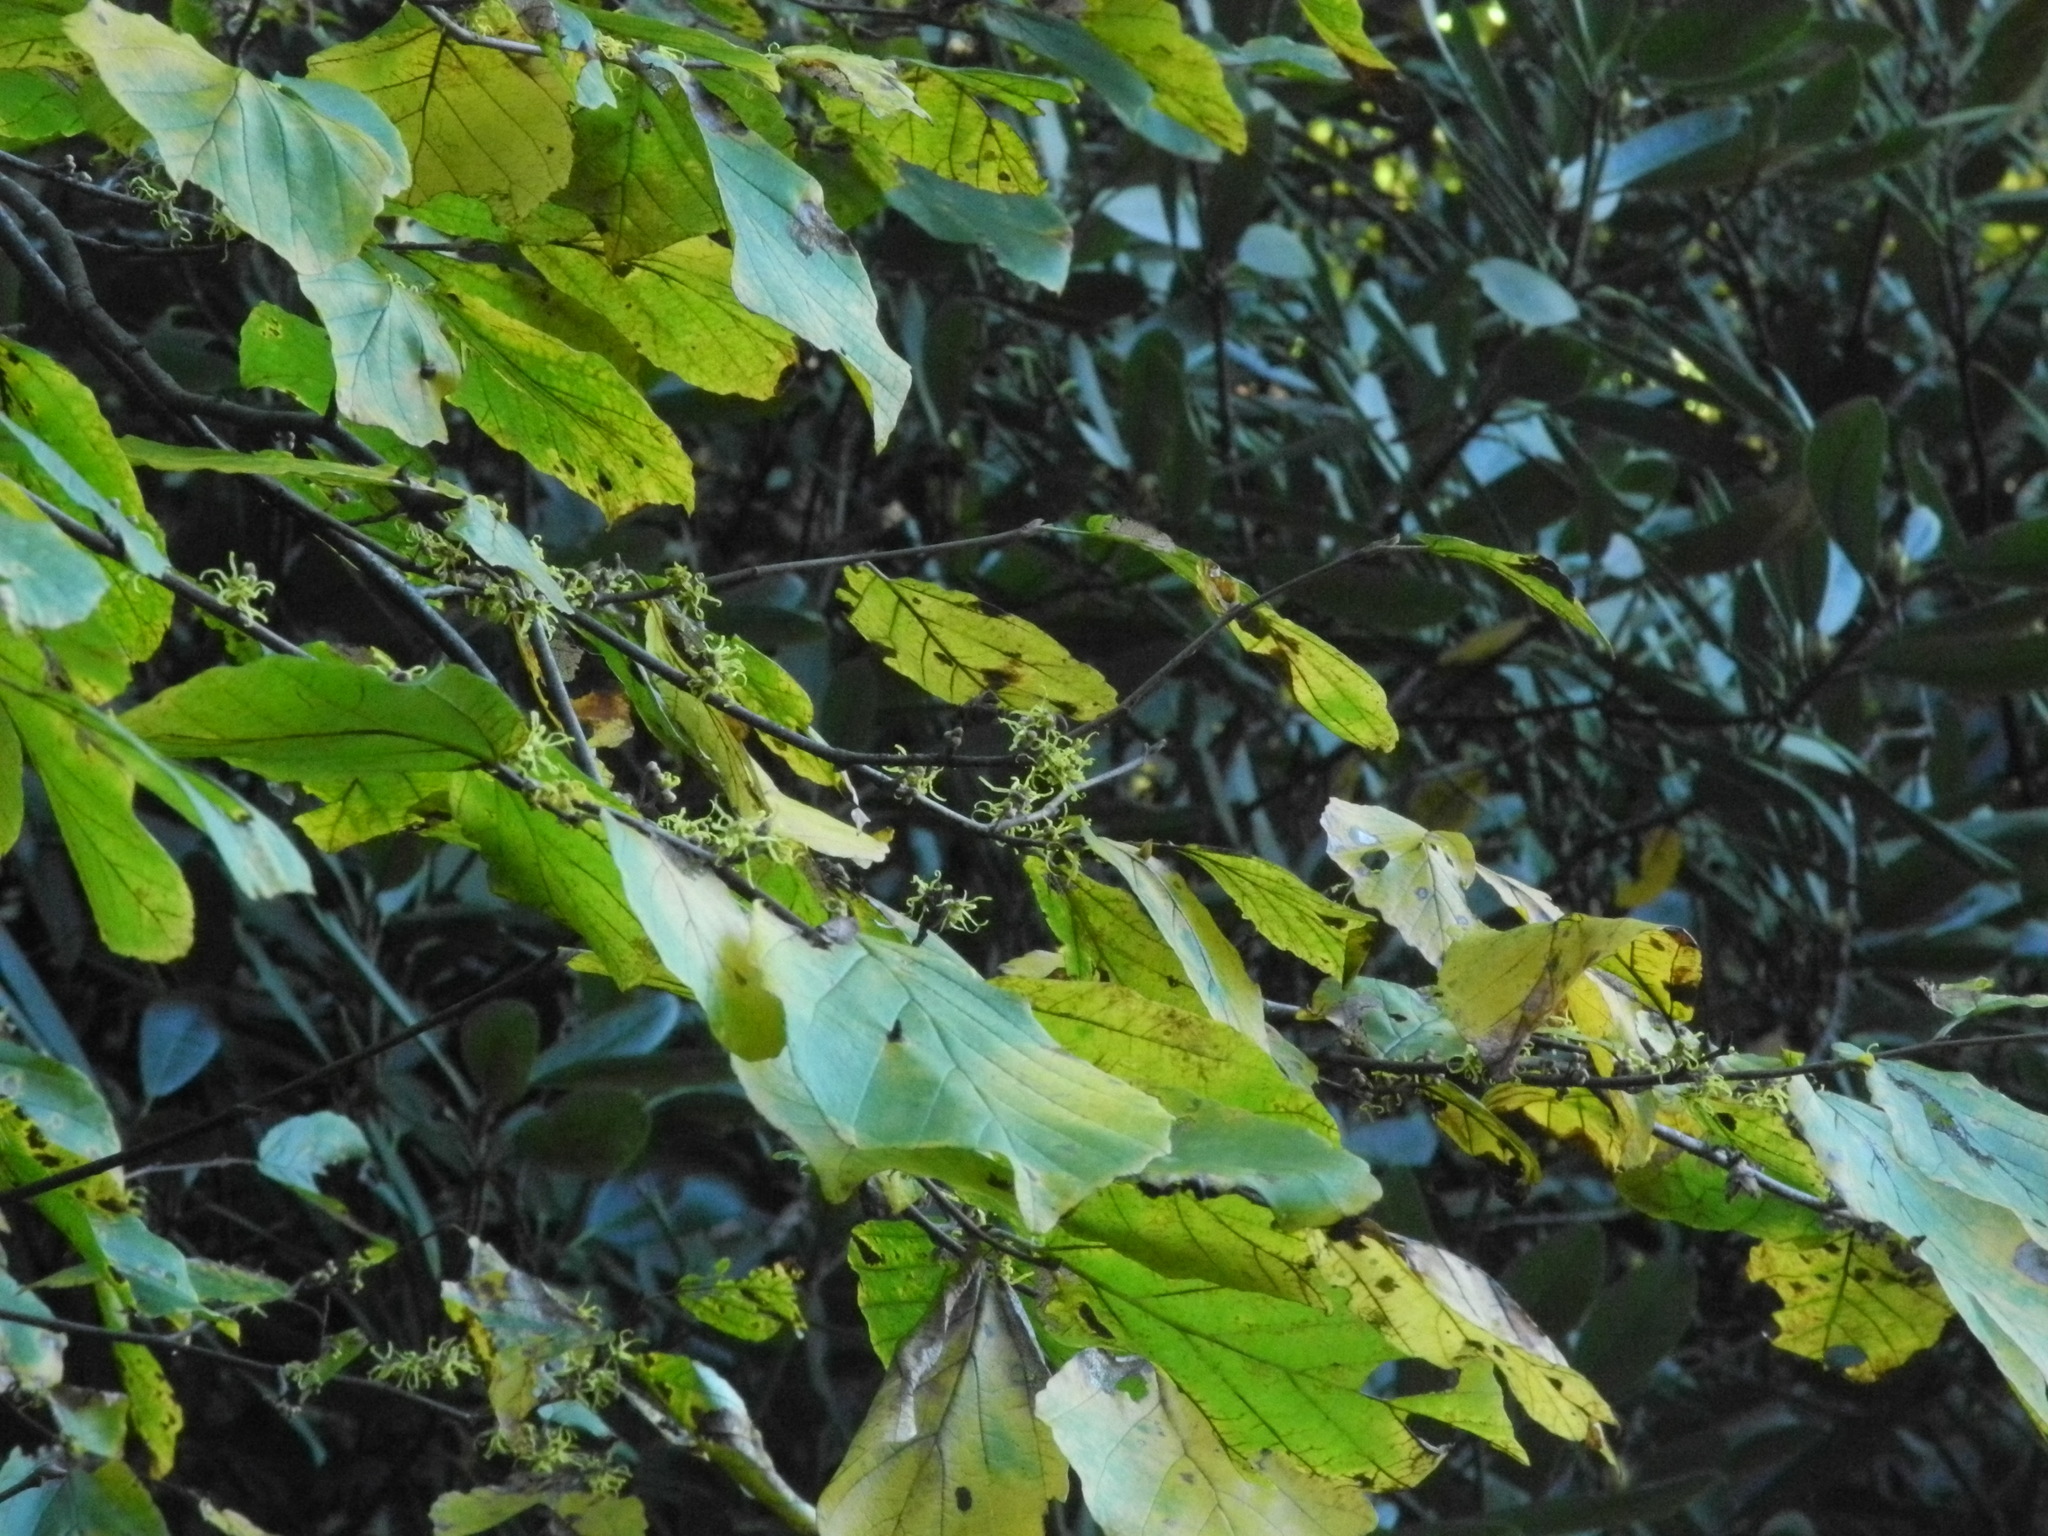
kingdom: Plantae
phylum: Tracheophyta
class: Magnoliopsida
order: Saxifragales
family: Hamamelidaceae
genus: Hamamelis
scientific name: Hamamelis virginiana
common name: Witch-hazel
